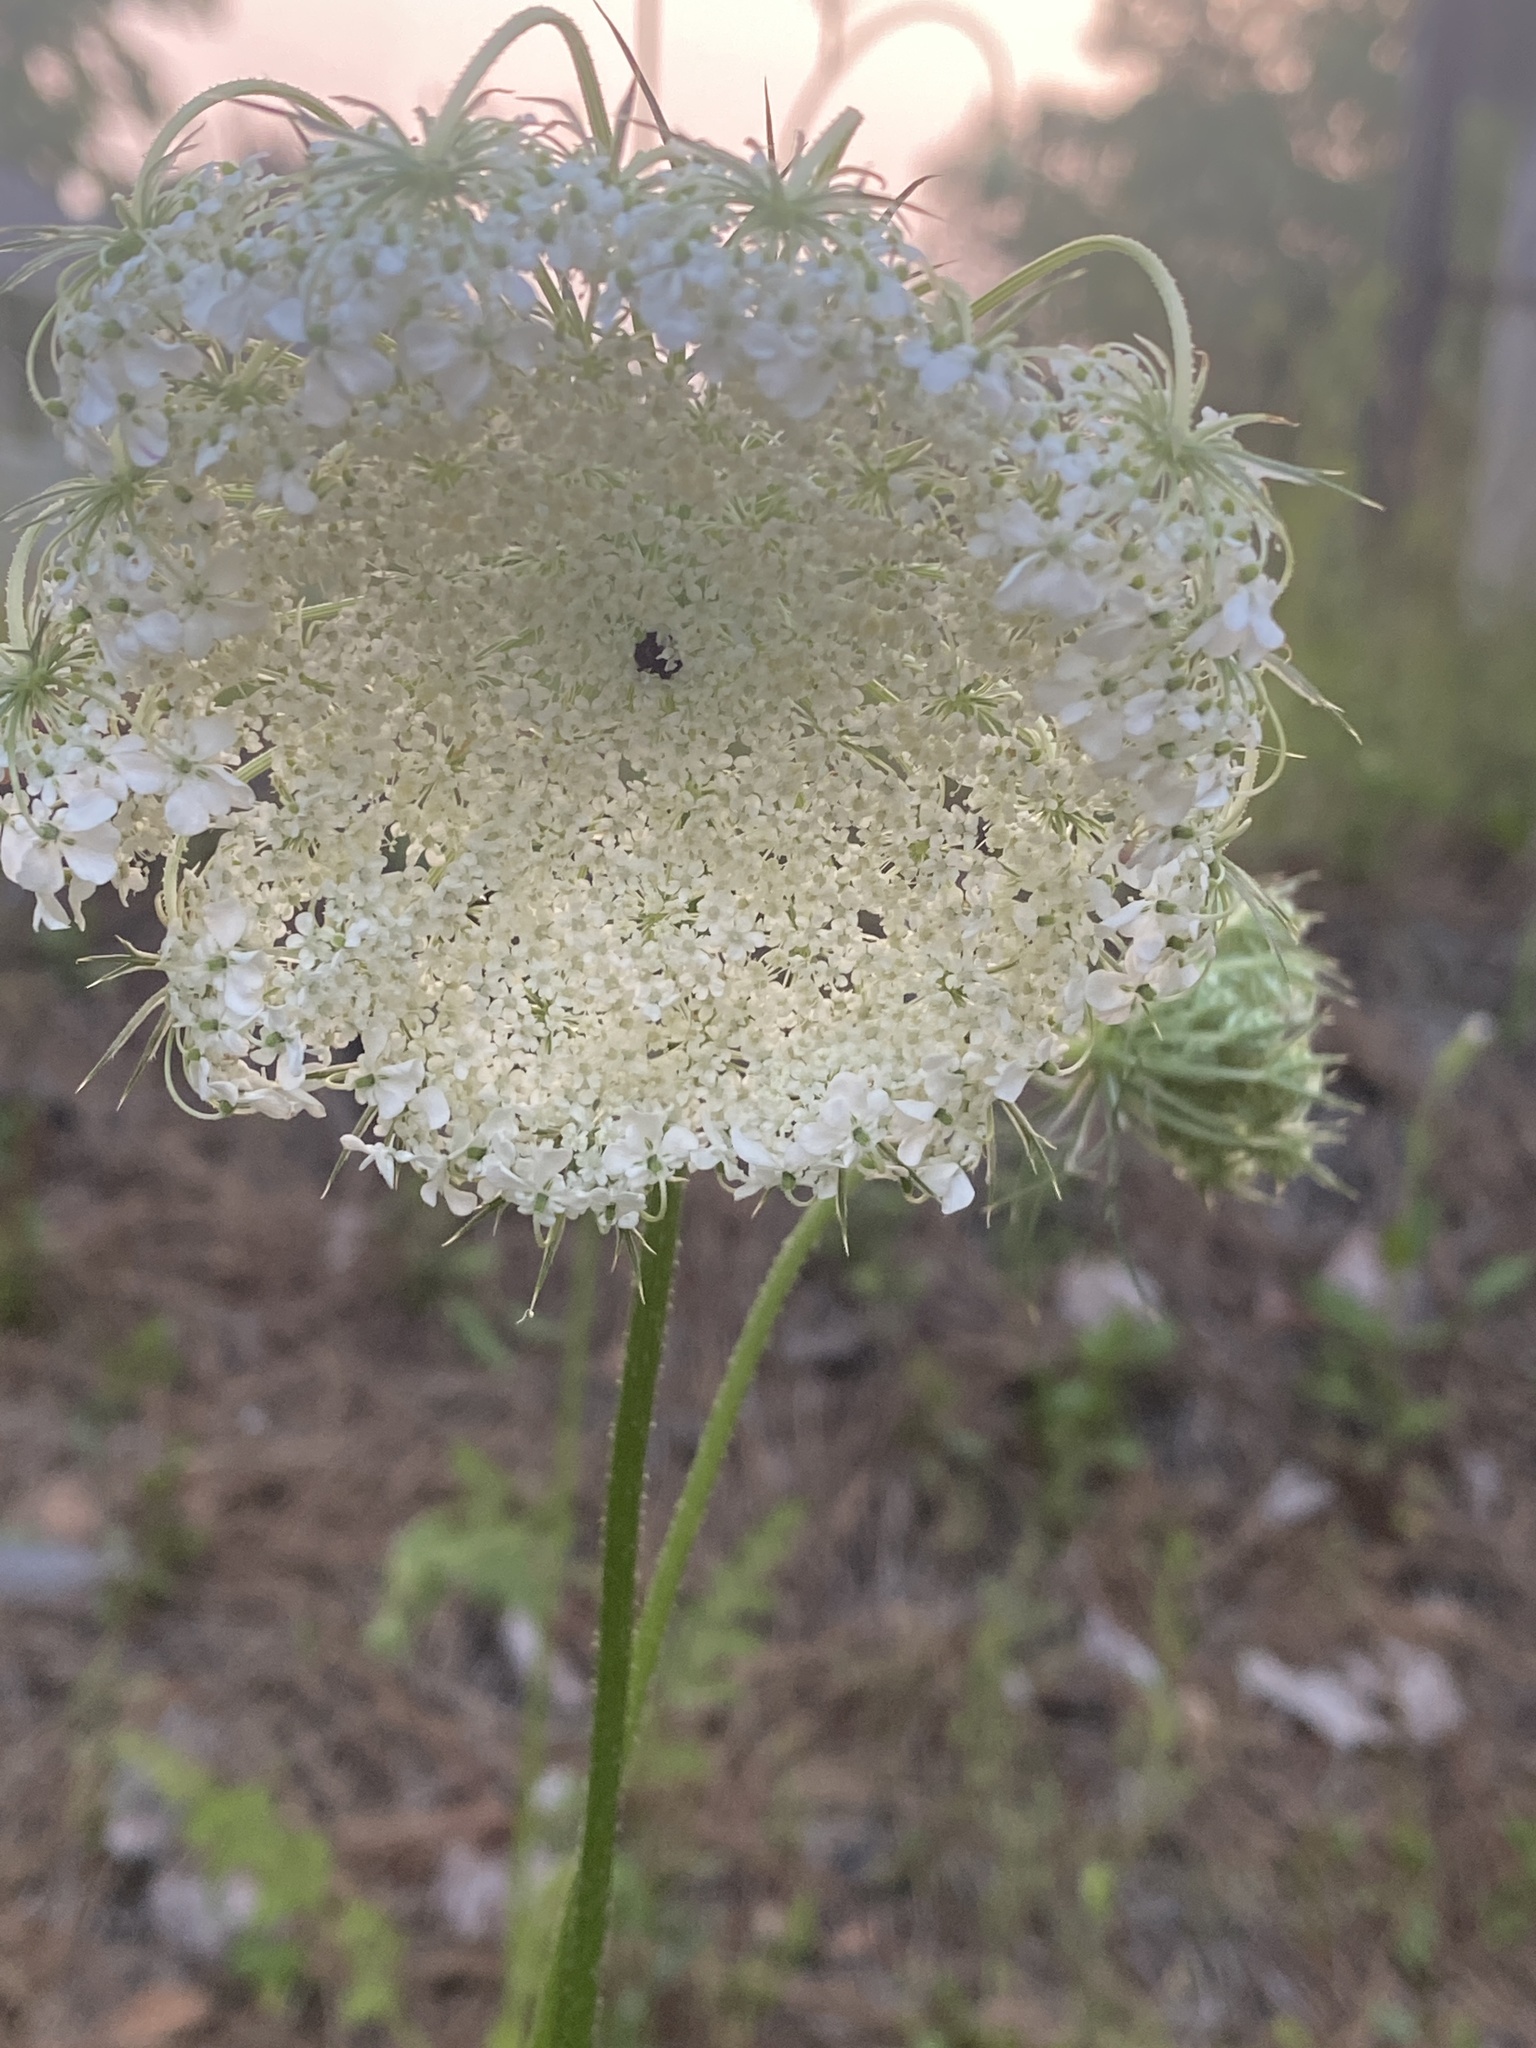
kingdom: Plantae
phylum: Tracheophyta
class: Magnoliopsida
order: Apiales
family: Apiaceae
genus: Daucus
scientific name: Daucus carota
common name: Wild carrot
